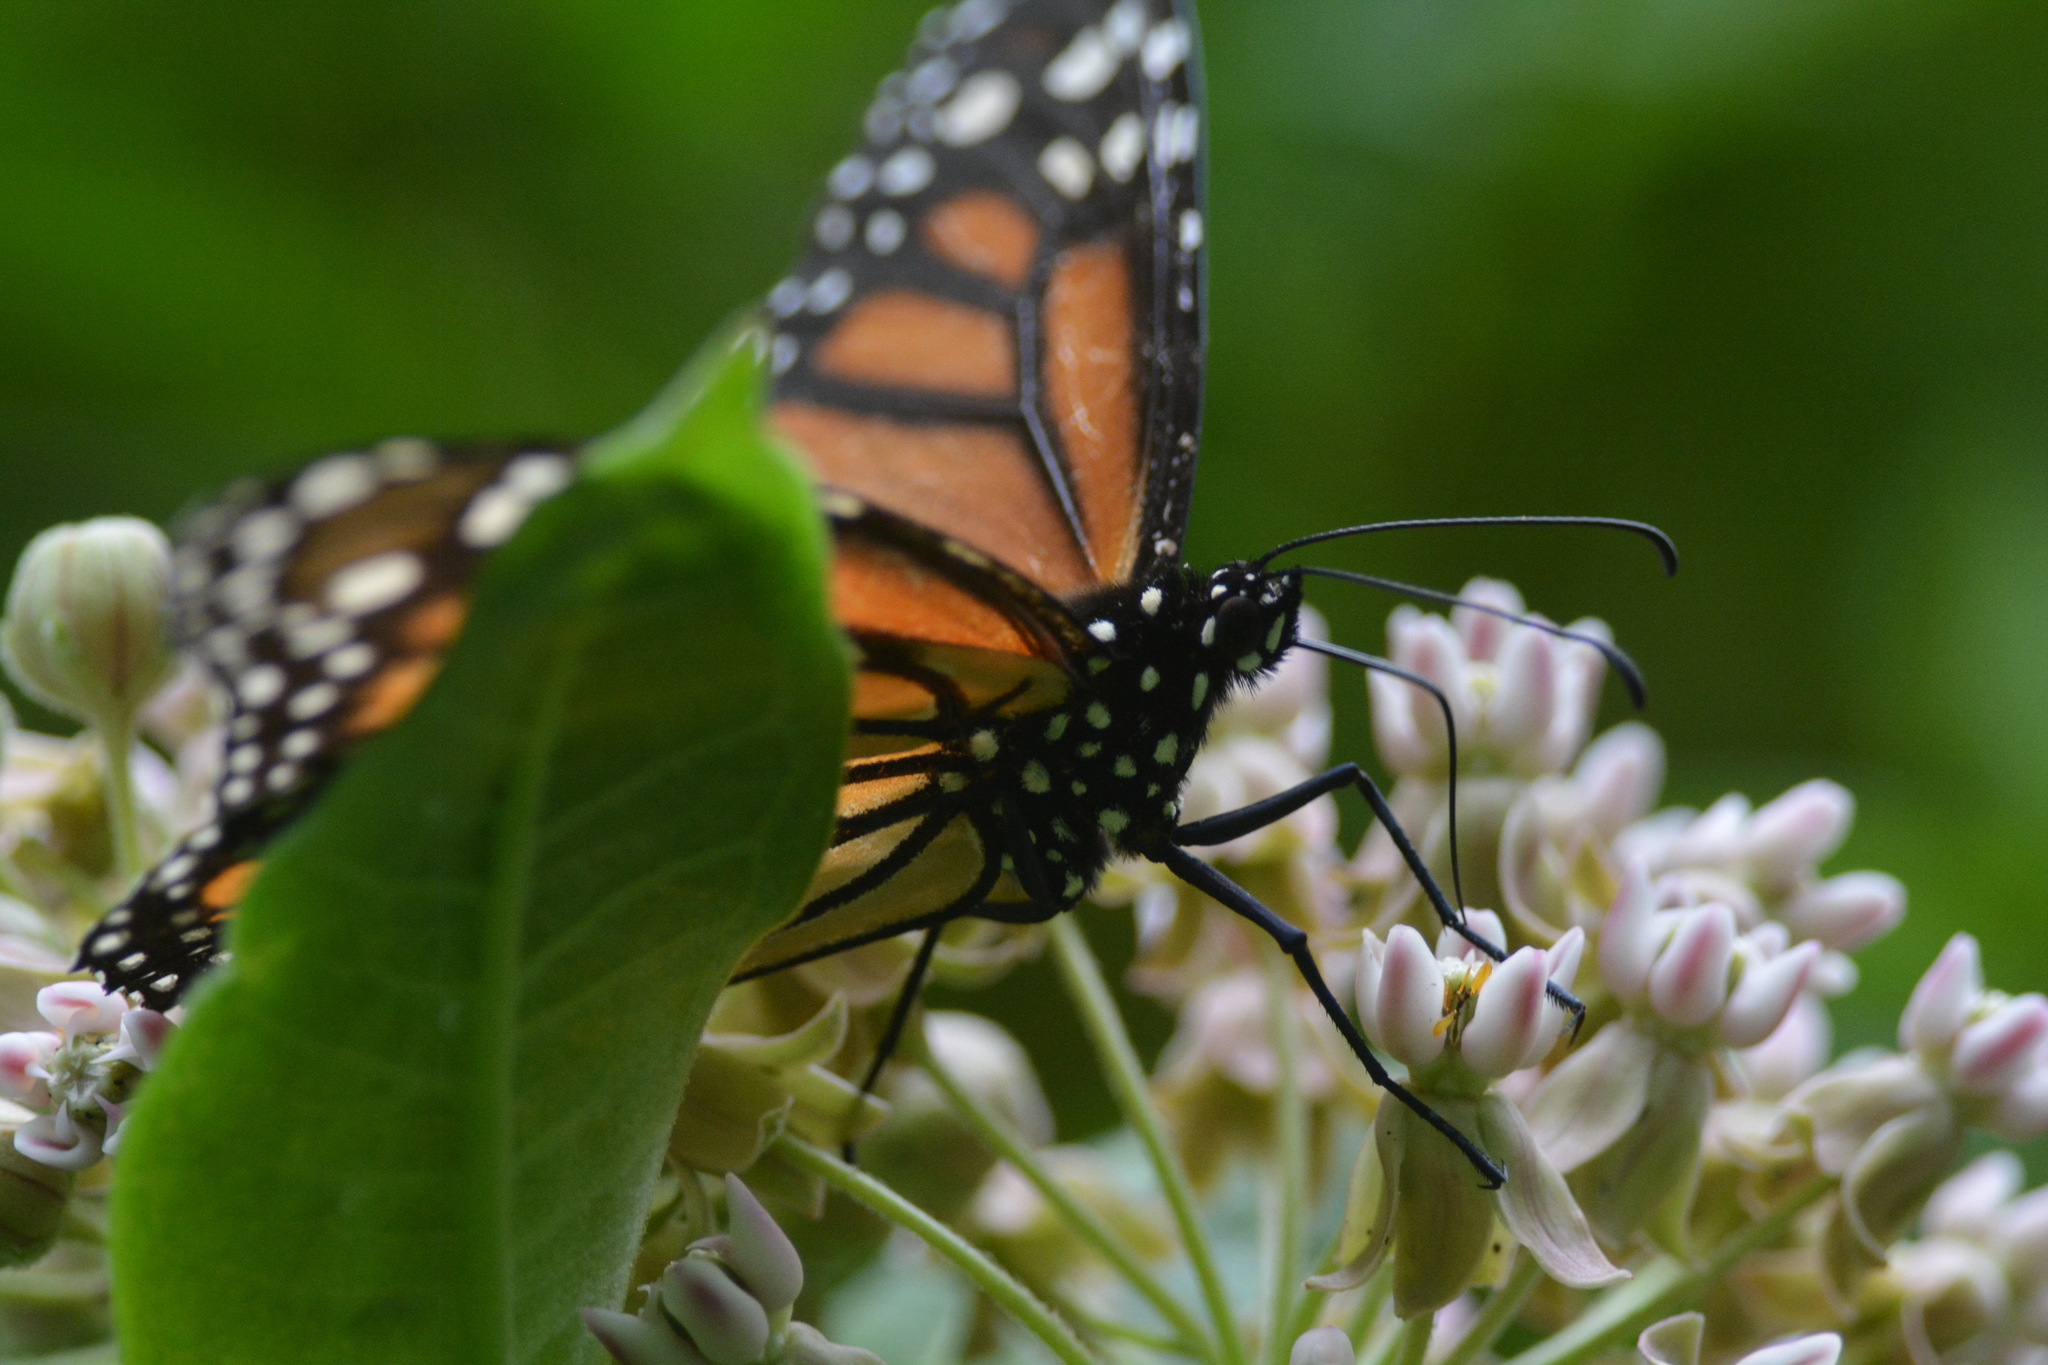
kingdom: Animalia
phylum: Arthropoda
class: Insecta
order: Lepidoptera
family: Nymphalidae
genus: Danaus
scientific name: Danaus plexippus
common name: Monarch
